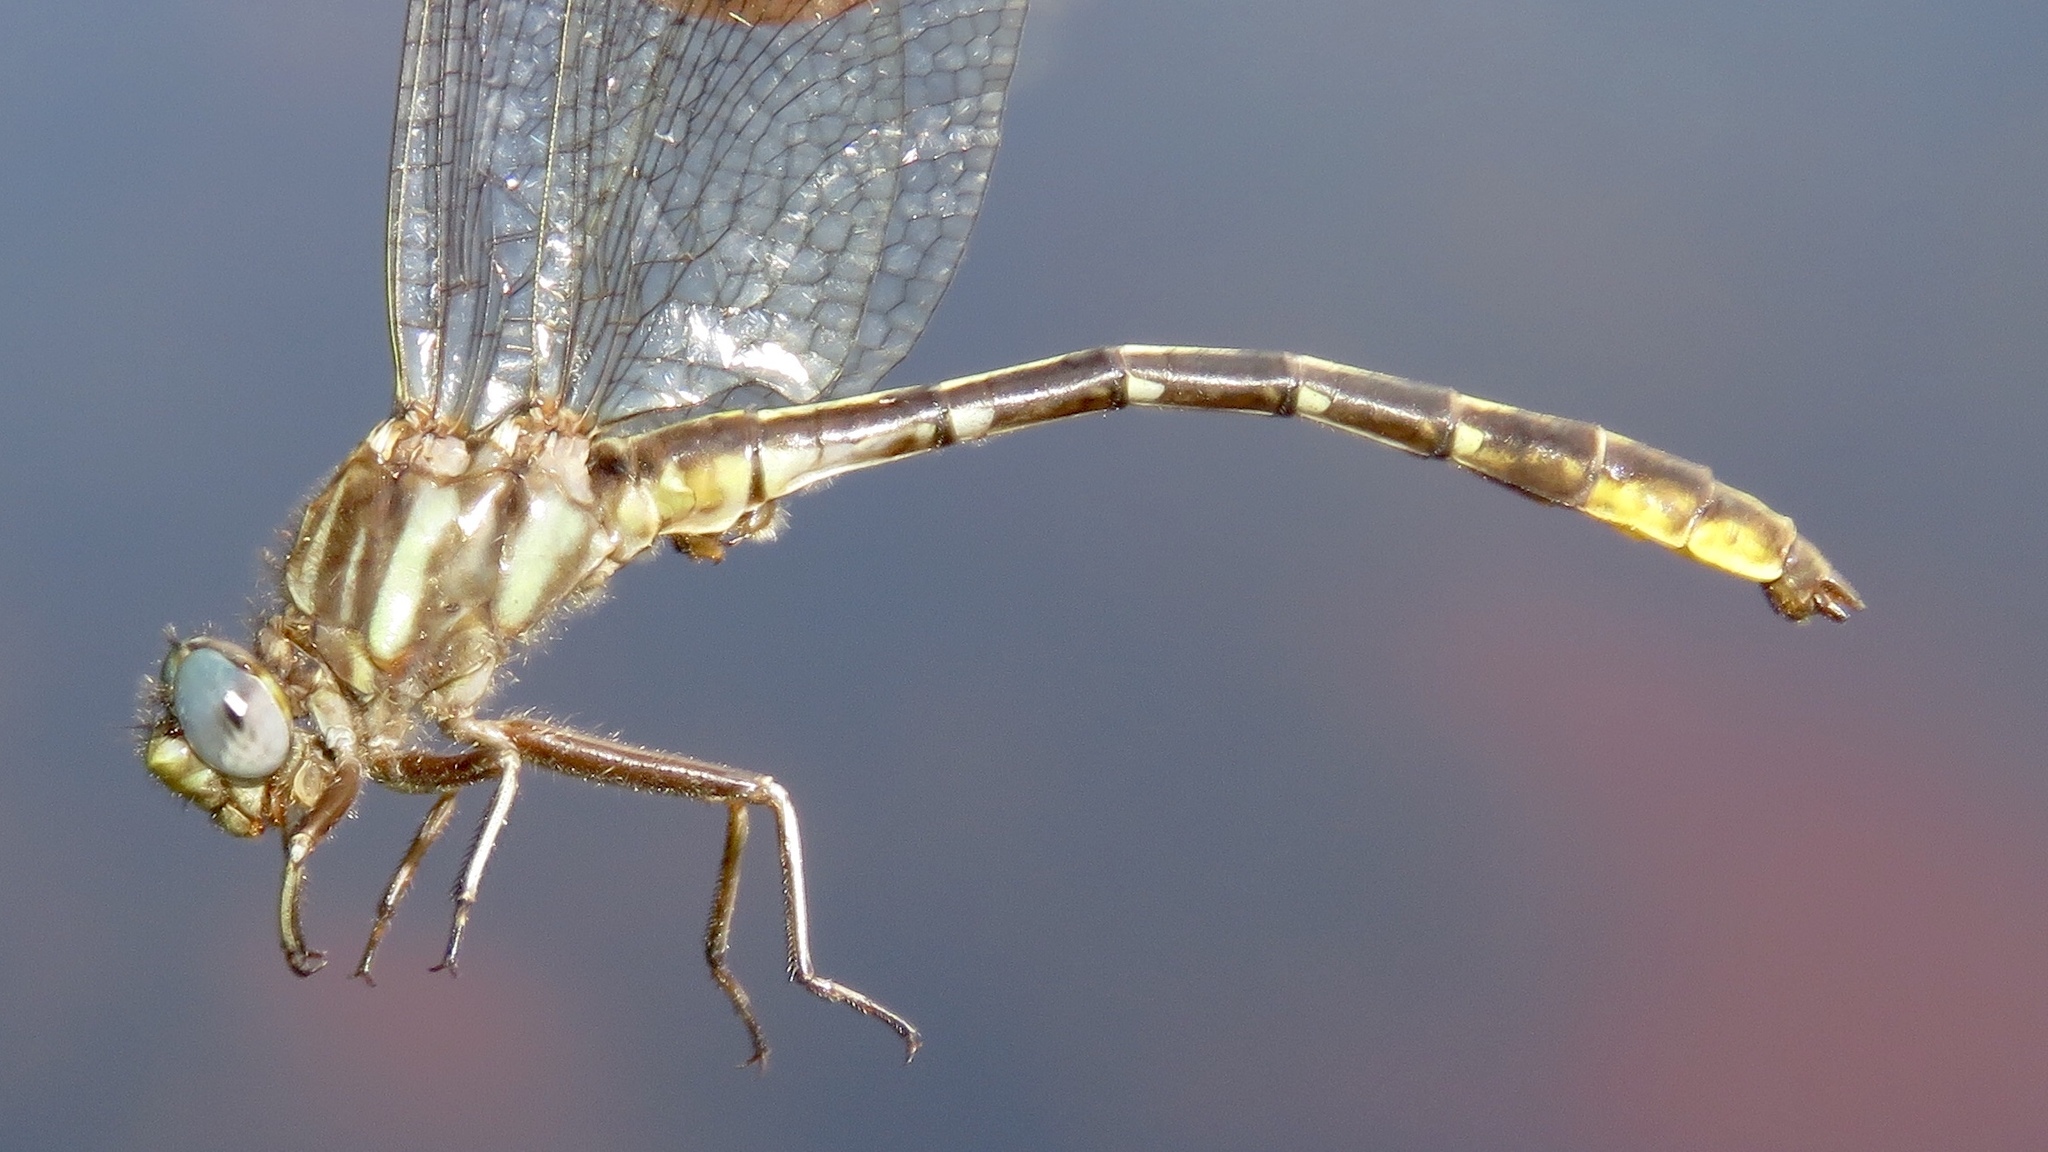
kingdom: Animalia
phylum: Arthropoda
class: Insecta
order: Odonata
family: Gomphidae
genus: Phanogomphus
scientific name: Phanogomphus exilis
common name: Lancet clubtail
